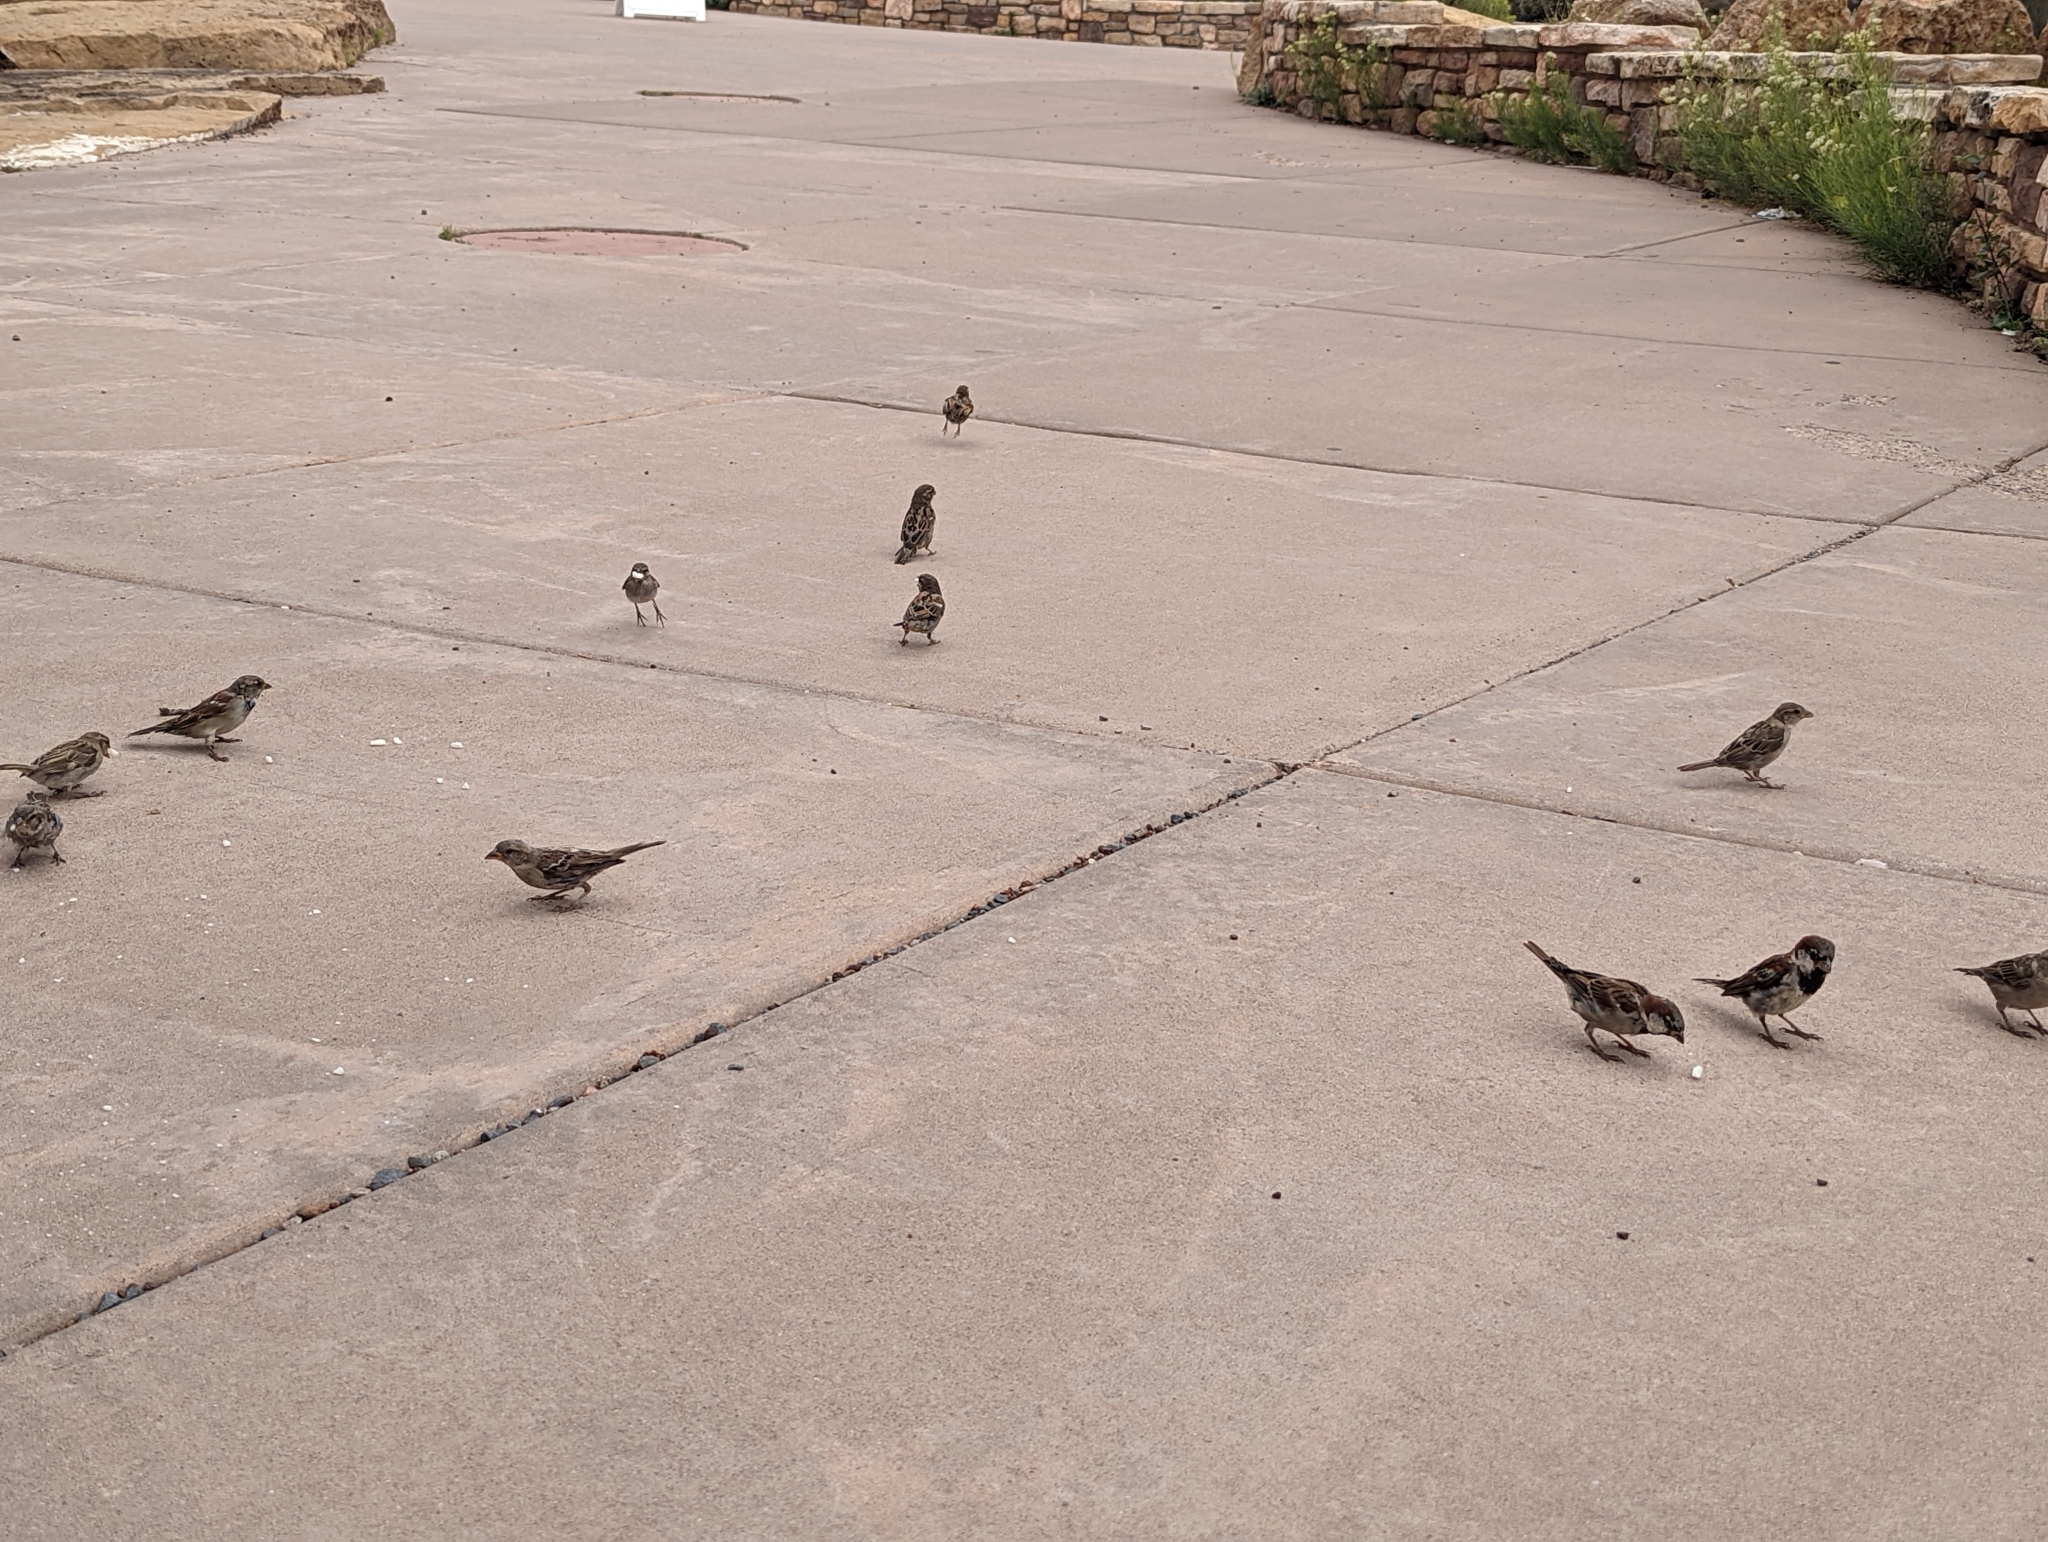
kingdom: Animalia
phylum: Chordata
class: Aves
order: Passeriformes
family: Passeridae
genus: Passer
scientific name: Passer domesticus
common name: House sparrow
